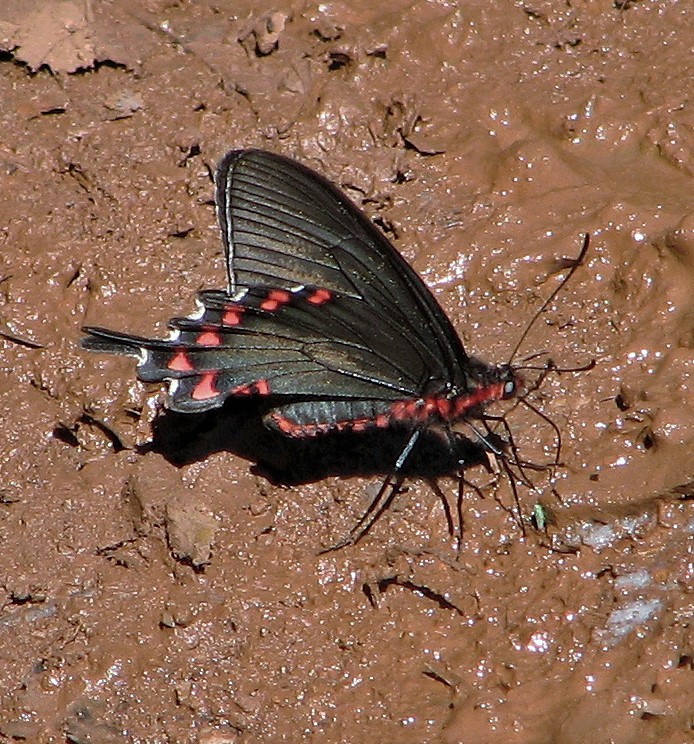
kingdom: Animalia
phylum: Arthropoda
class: Insecta
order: Lepidoptera
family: Papilionidae
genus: Parides
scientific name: Parides bunichus
